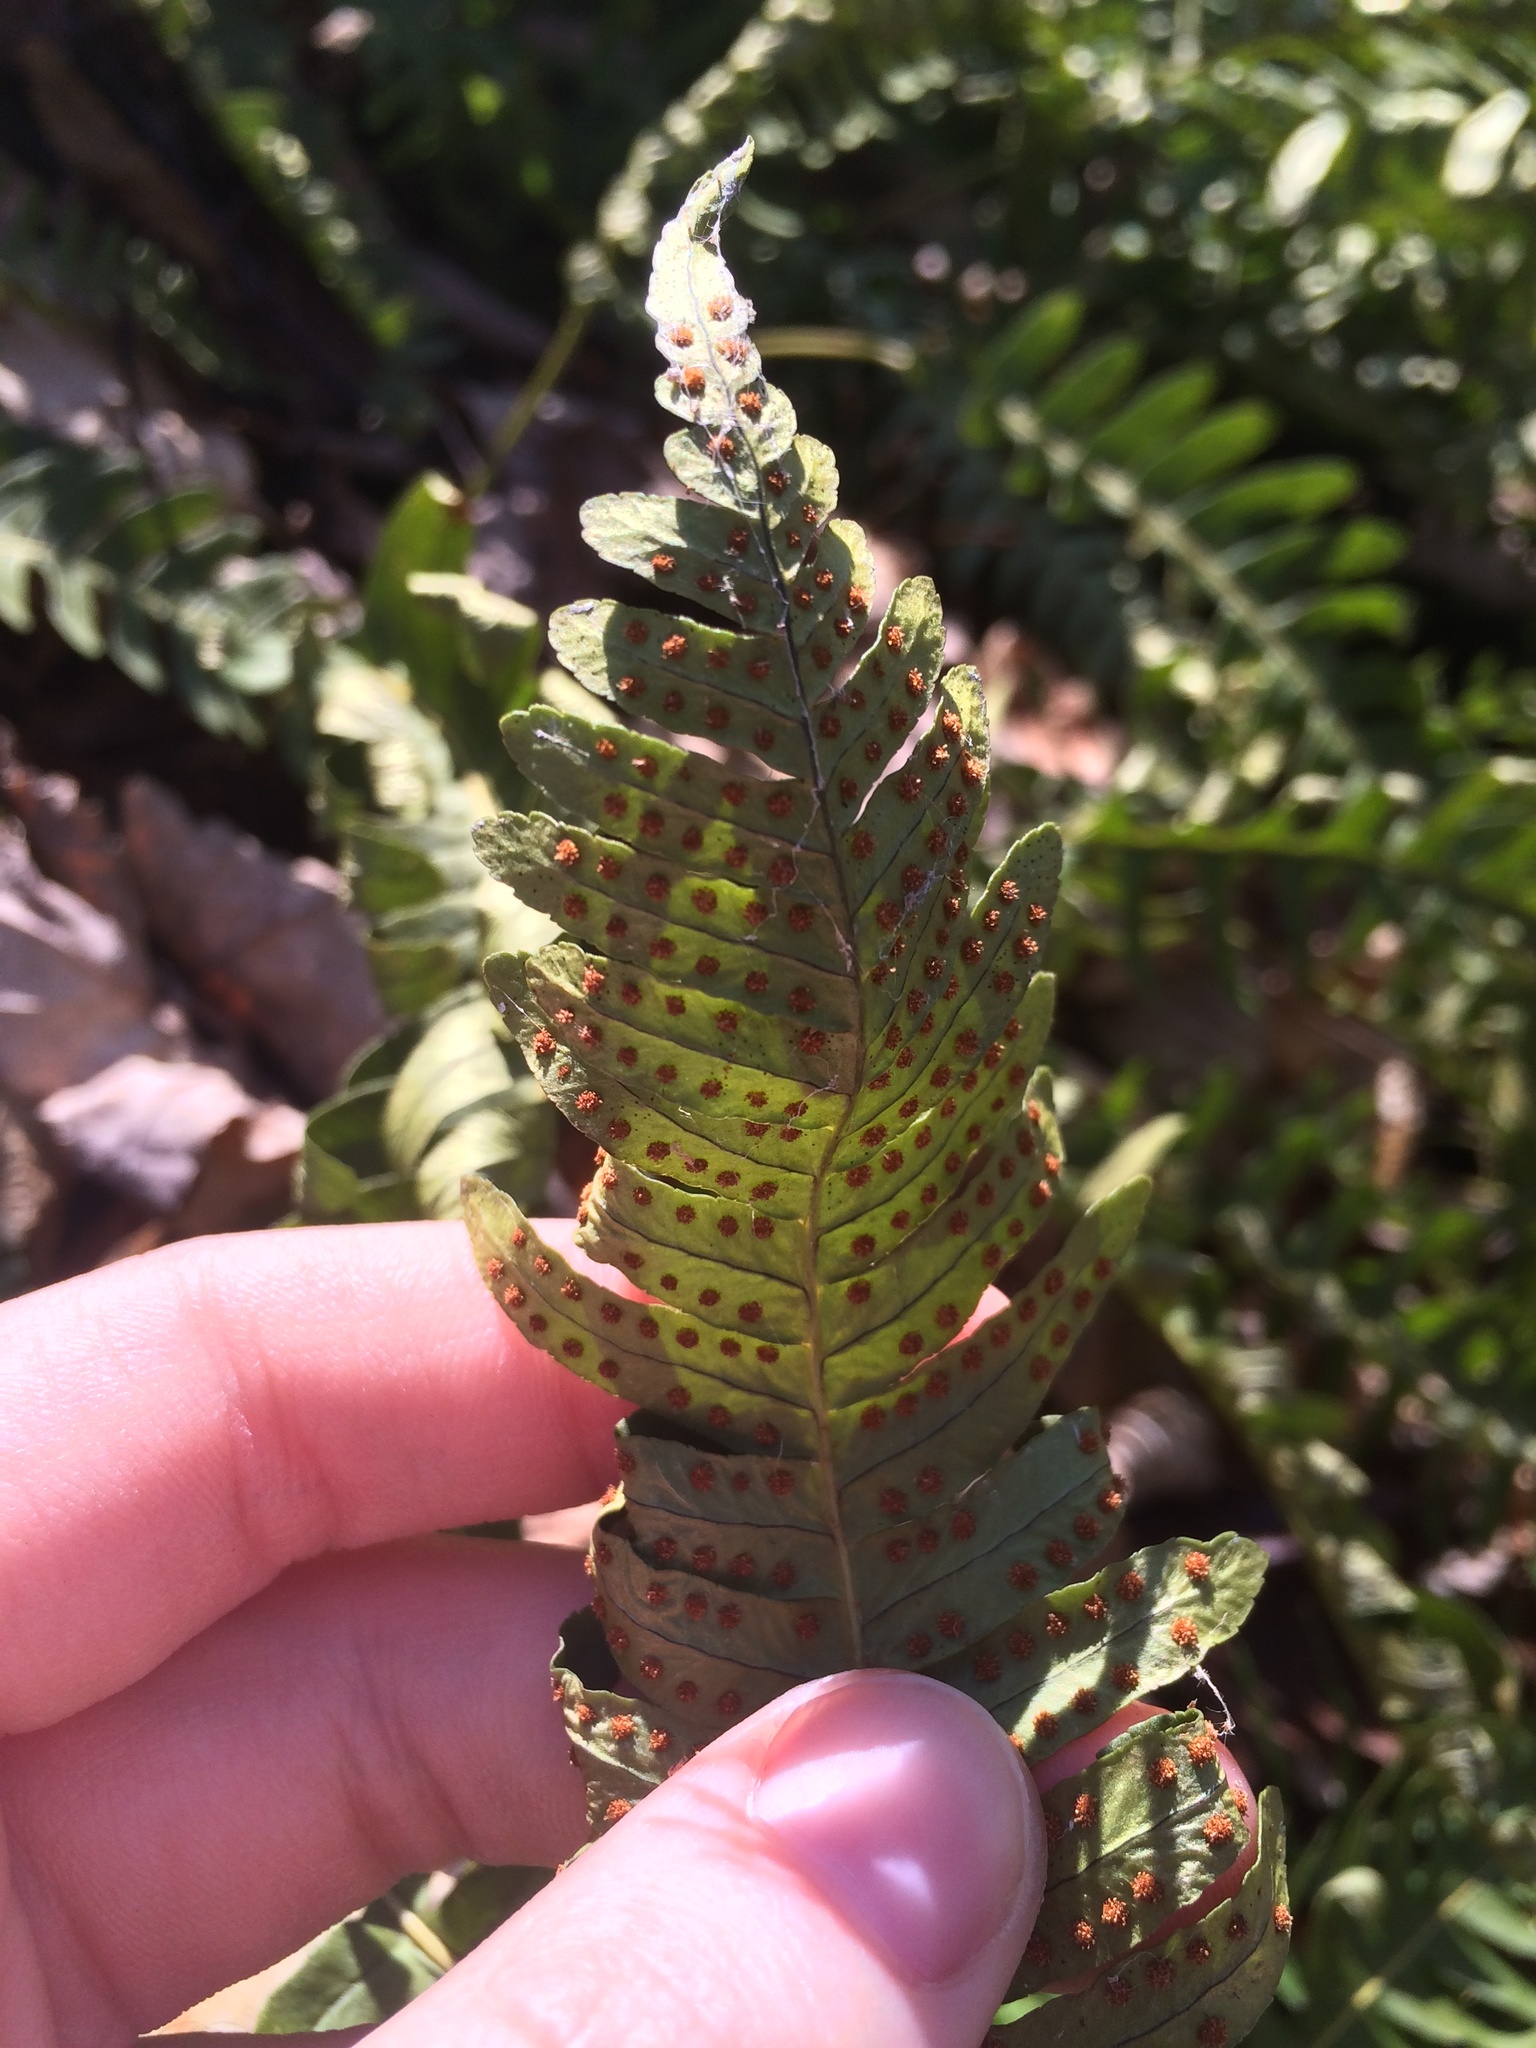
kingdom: Plantae
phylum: Tracheophyta
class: Polypodiopsida
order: Polypodiales
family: Polypodiaceae
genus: Polypodium
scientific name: Polypodium virginianum
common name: American wall fern
